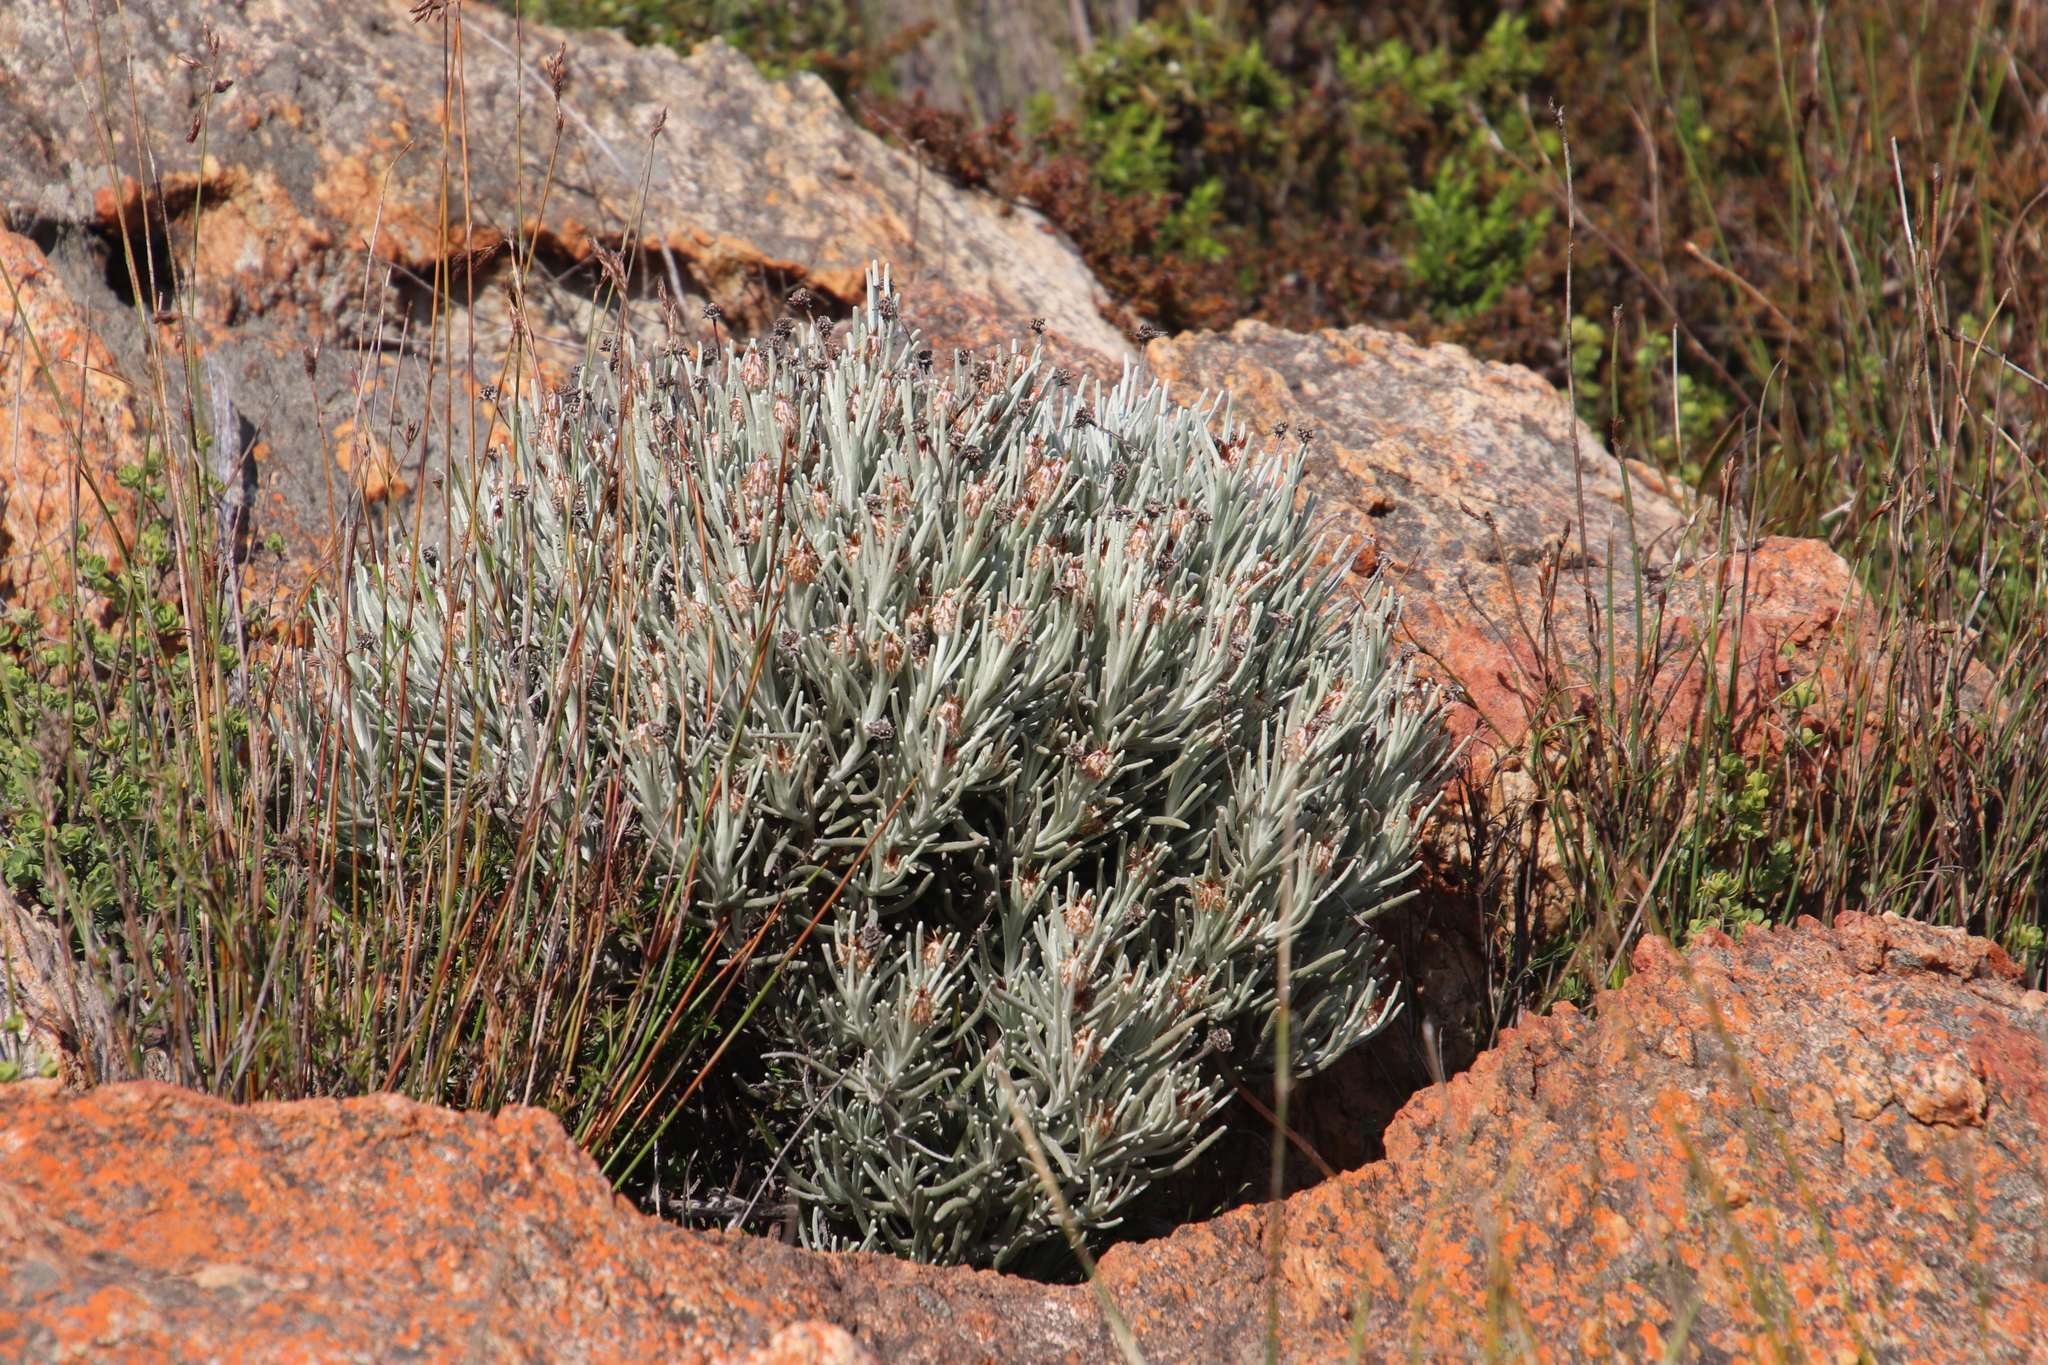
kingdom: Plantae
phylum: Tracheophyta
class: Magnoliopsida
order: Asterales
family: Asteraceae
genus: Syncarpha
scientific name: Syncarpha gnaphaloides
